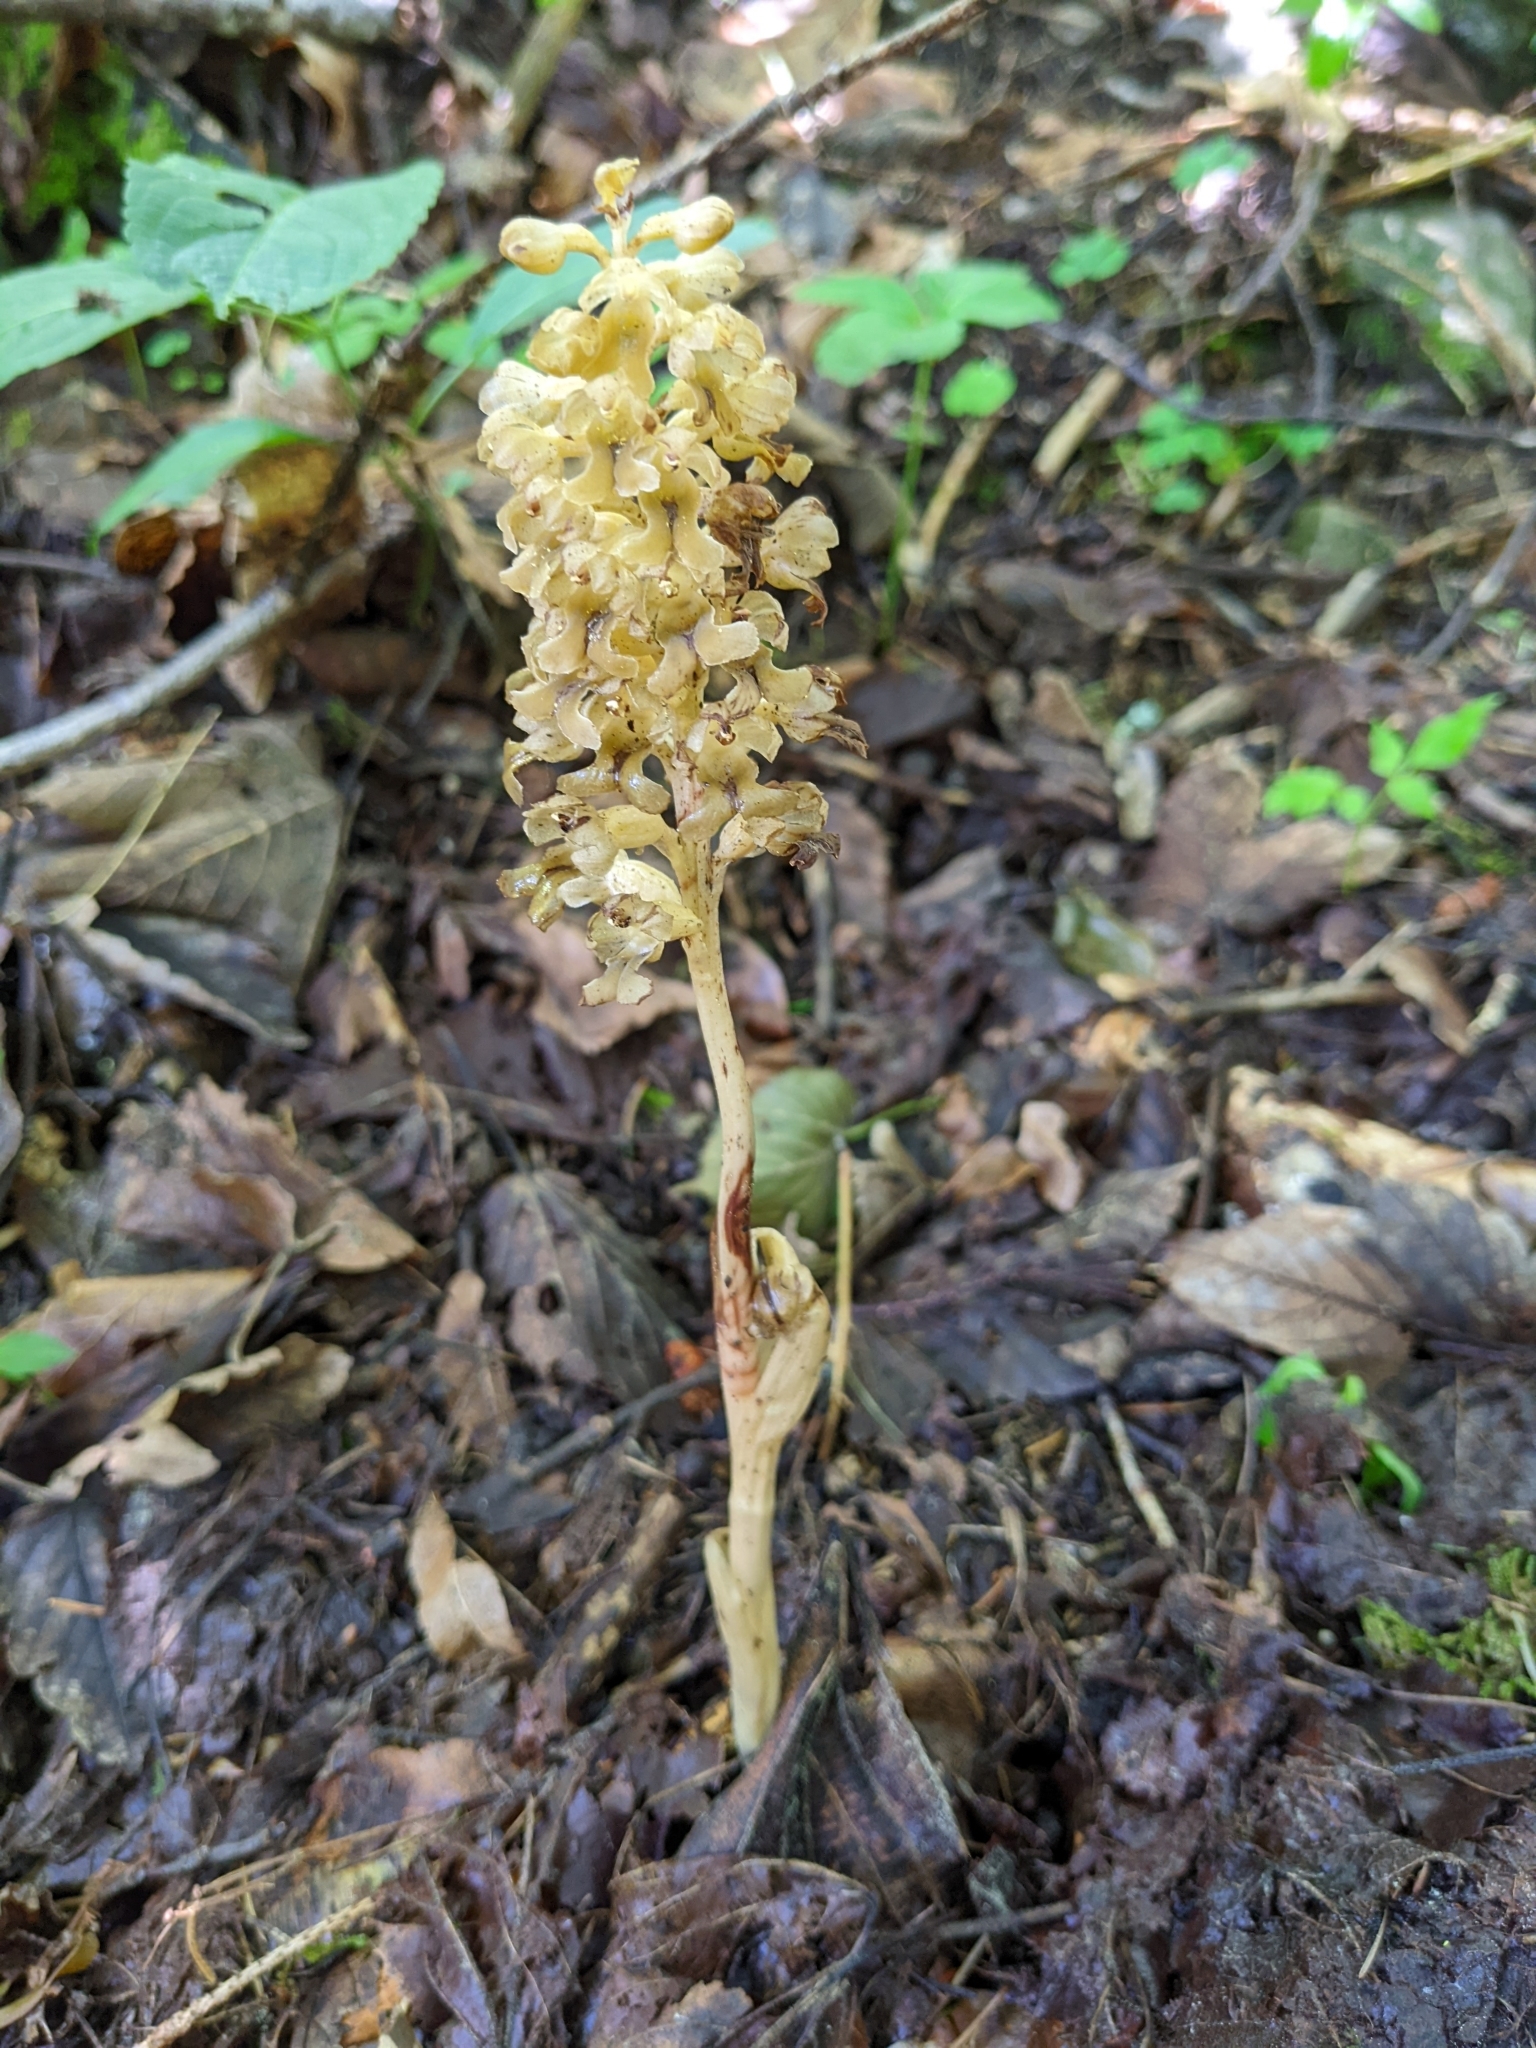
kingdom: Plantae
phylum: Tracheophyta
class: Liliopsida
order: Asparagales
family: Orchidaceae
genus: Neottia
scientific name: Neottia nidus-avis
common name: Bird's-nest orchid
